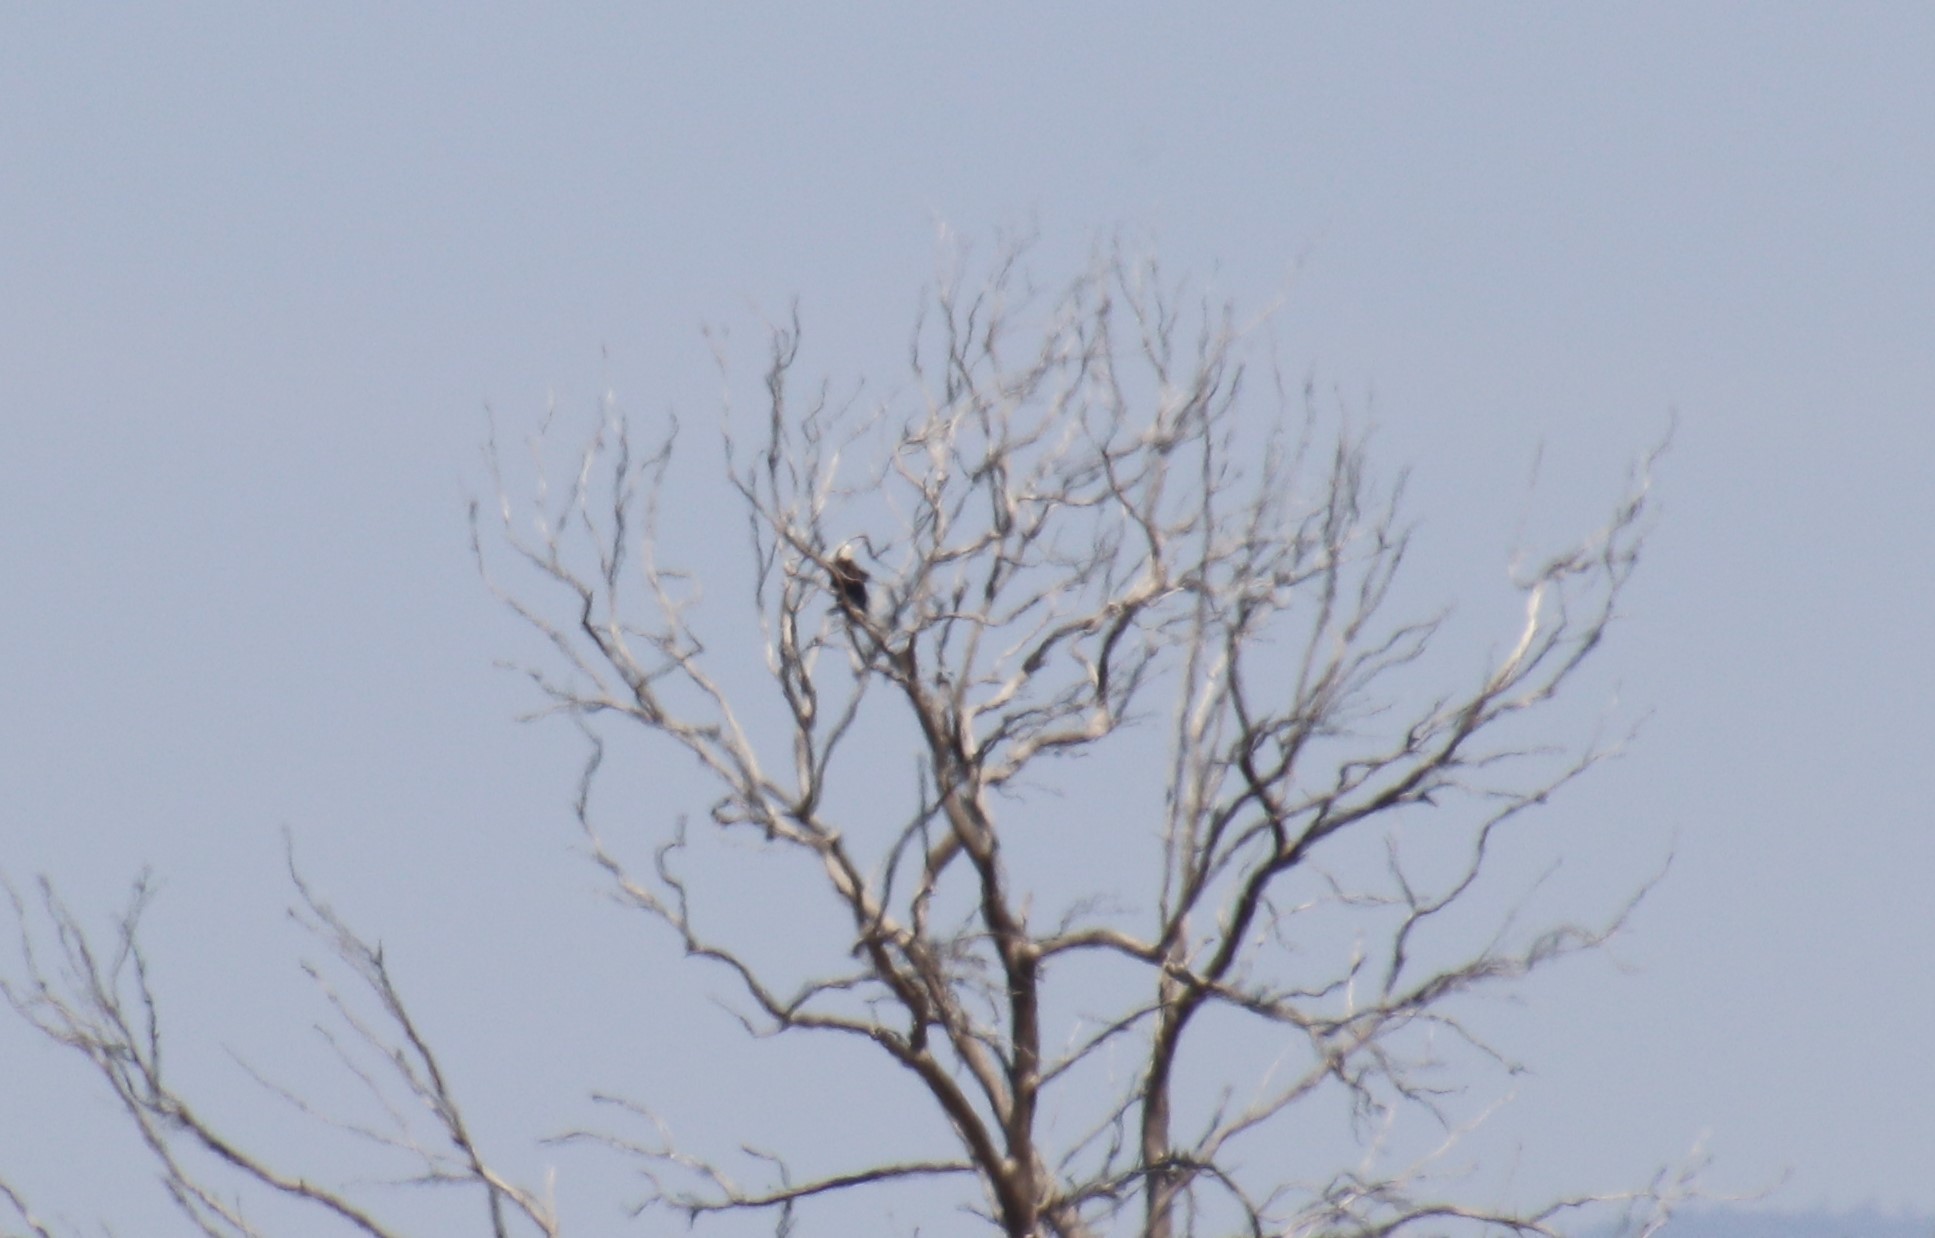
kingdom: Animalia
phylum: Chordata
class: Aves
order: Accipitriformes
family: Accipitridae
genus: Haliaeetus
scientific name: Haliaeetus leucocephalus
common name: Bald eagle
